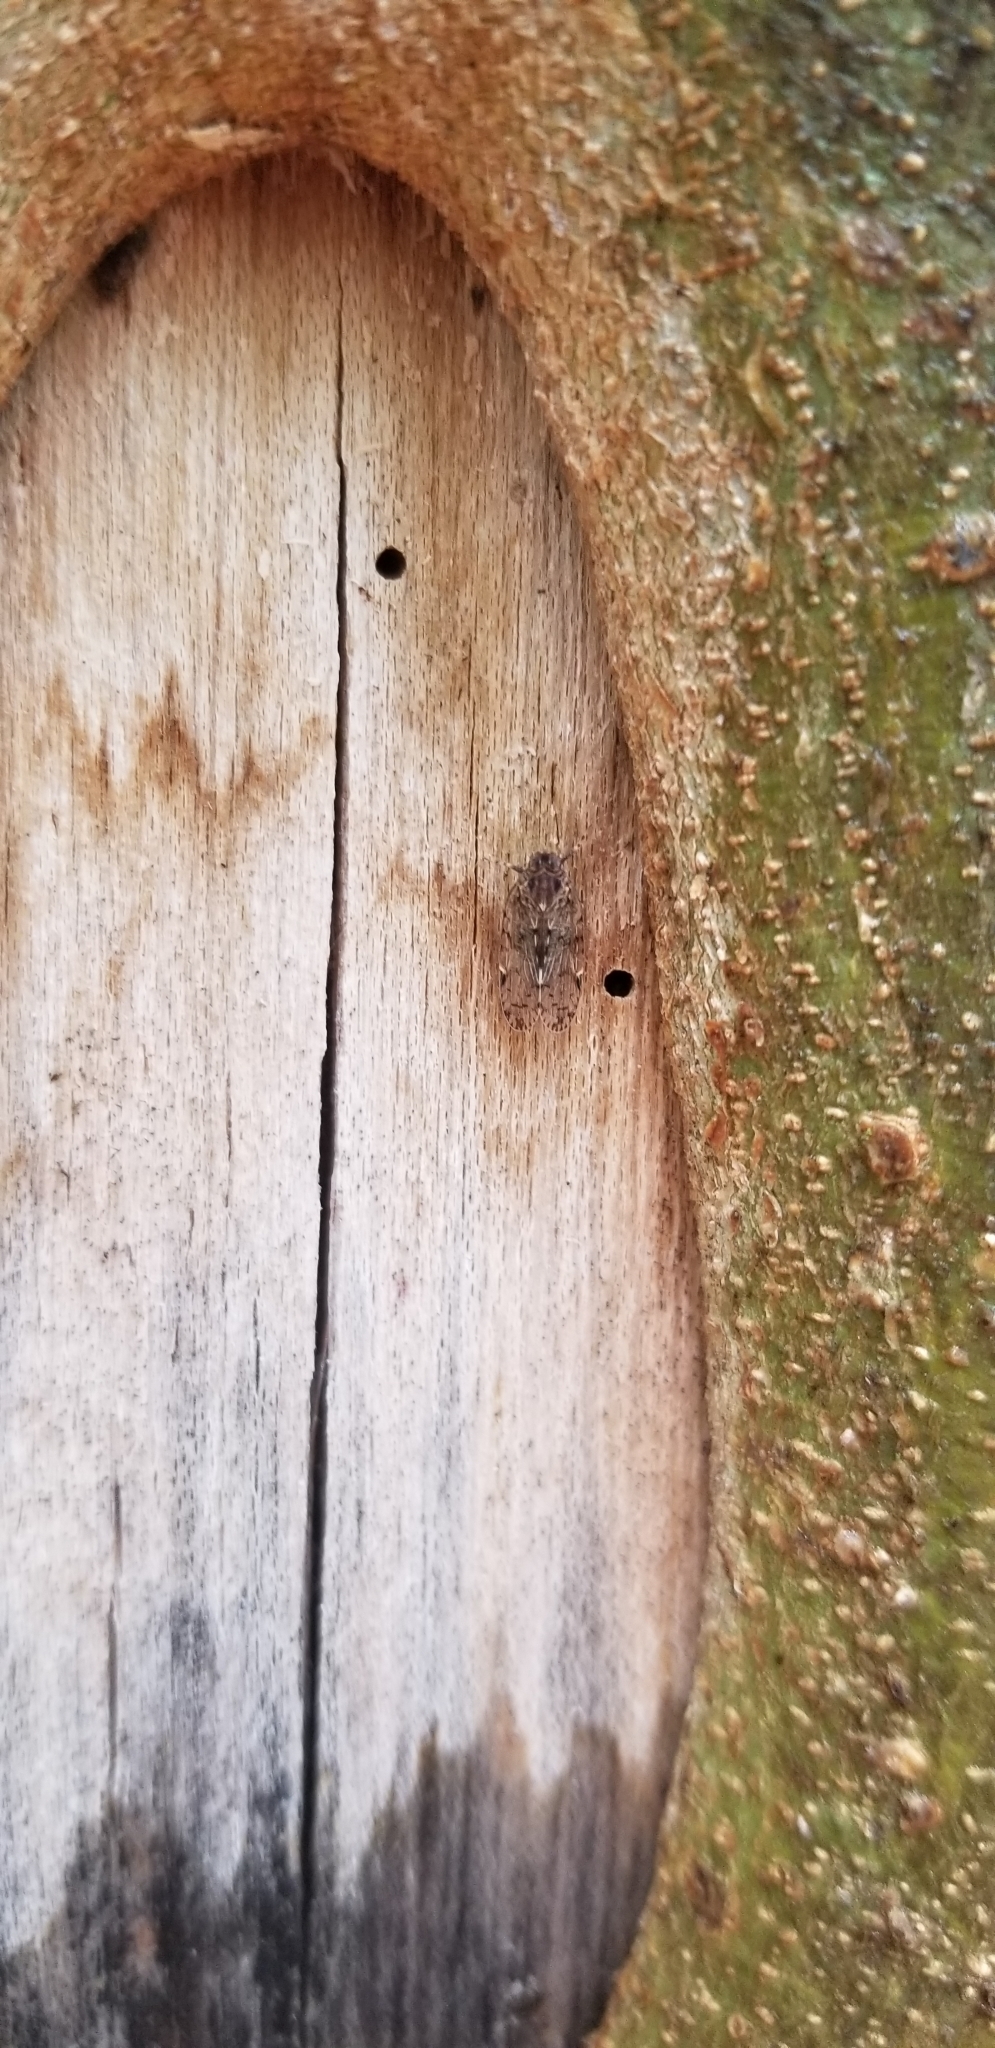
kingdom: Animalia
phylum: Arthropoda
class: Insecta
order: Hemiptera
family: Cixiidae
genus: Melanoliarus
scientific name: Melanoliarus placitus
